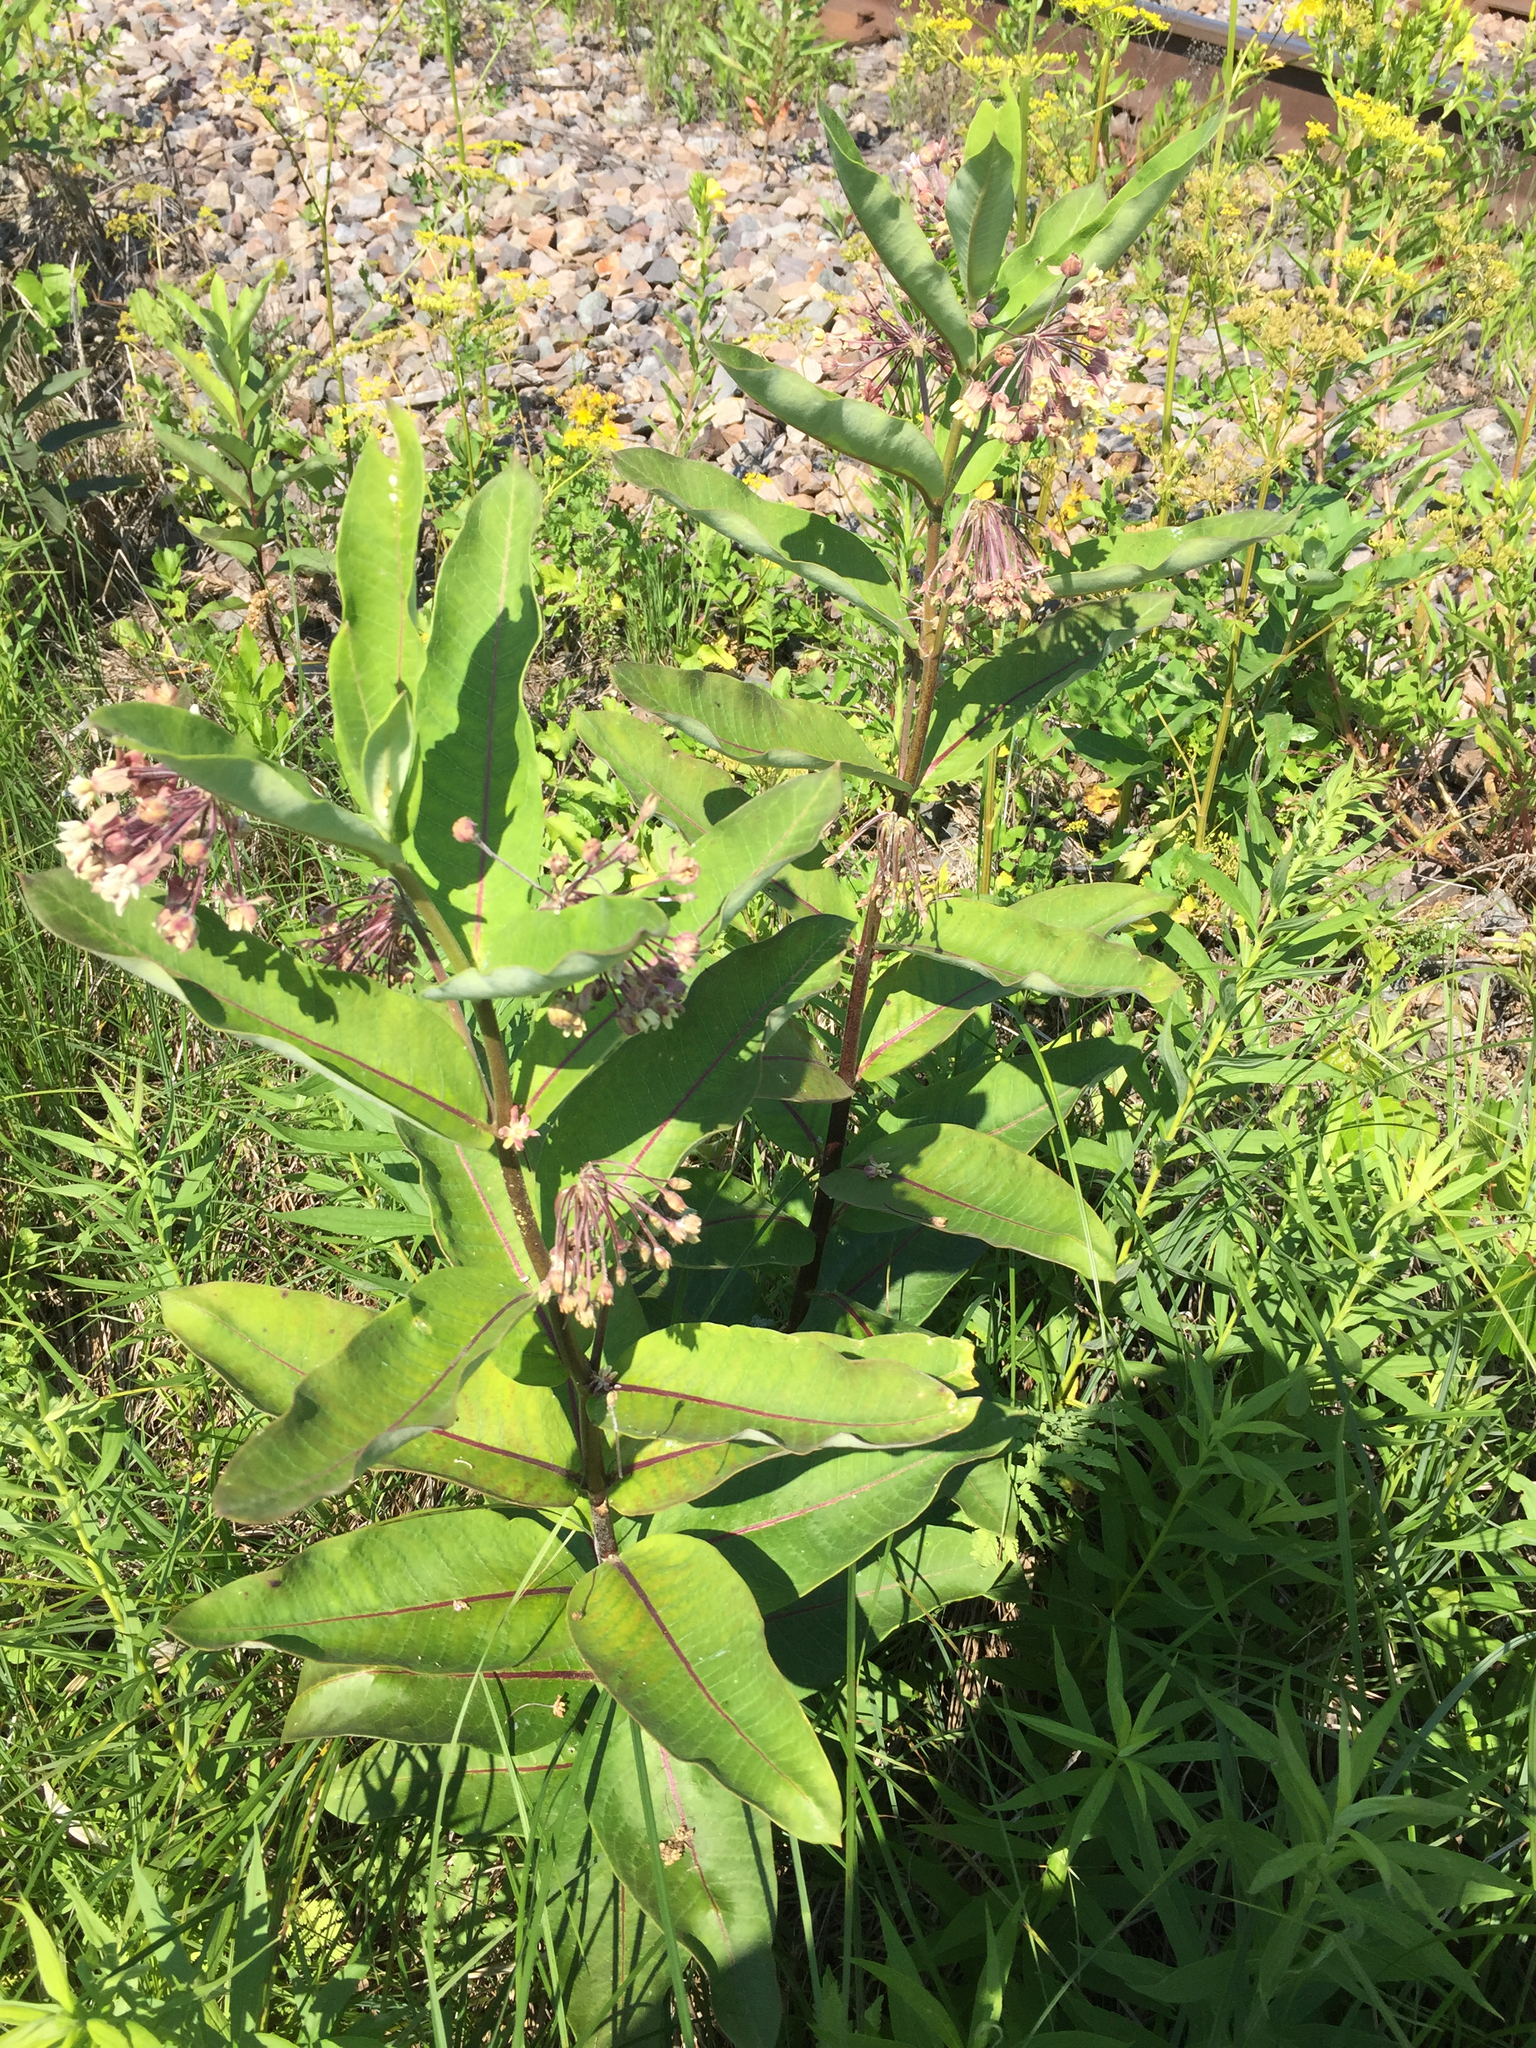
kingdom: Plantae
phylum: Tracheophyta
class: Magnoliopsida
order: Gentianales
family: Apocynaceae
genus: Asclepias
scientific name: Asclepias syriaca
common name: Common milkweed
